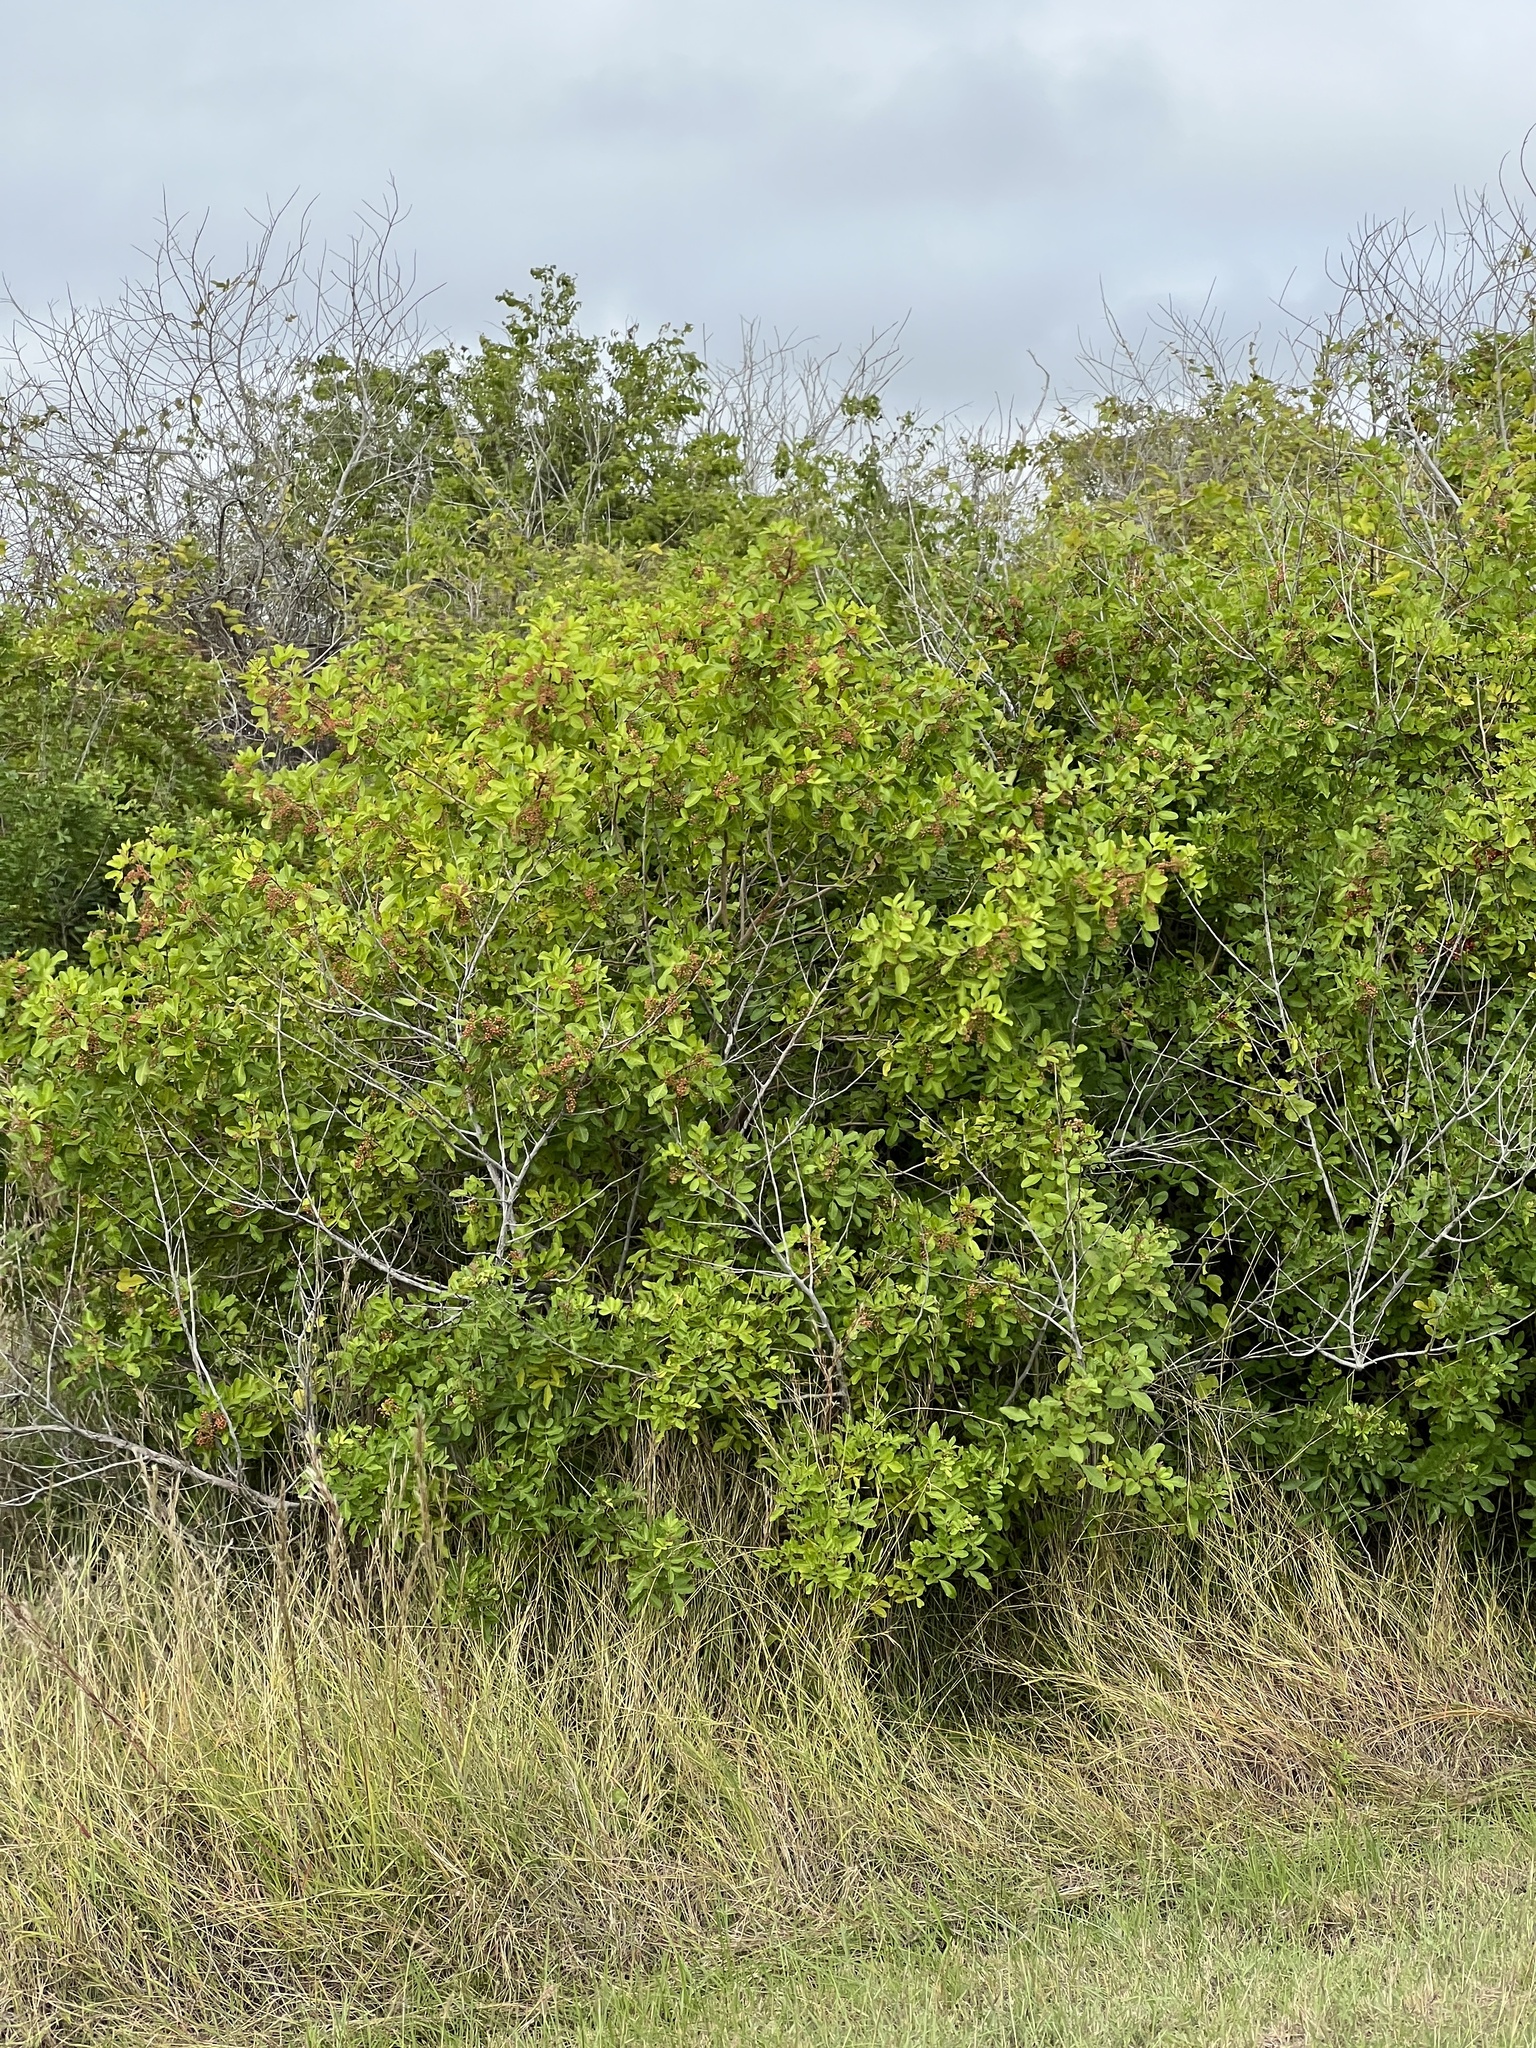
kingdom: Plantae
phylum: Tracheophyta
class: Magnoliopsida
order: Sapindales
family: Anacardiaceae
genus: Schinus
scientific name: Schinus terebinthifolia
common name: Brazilian peppertree
